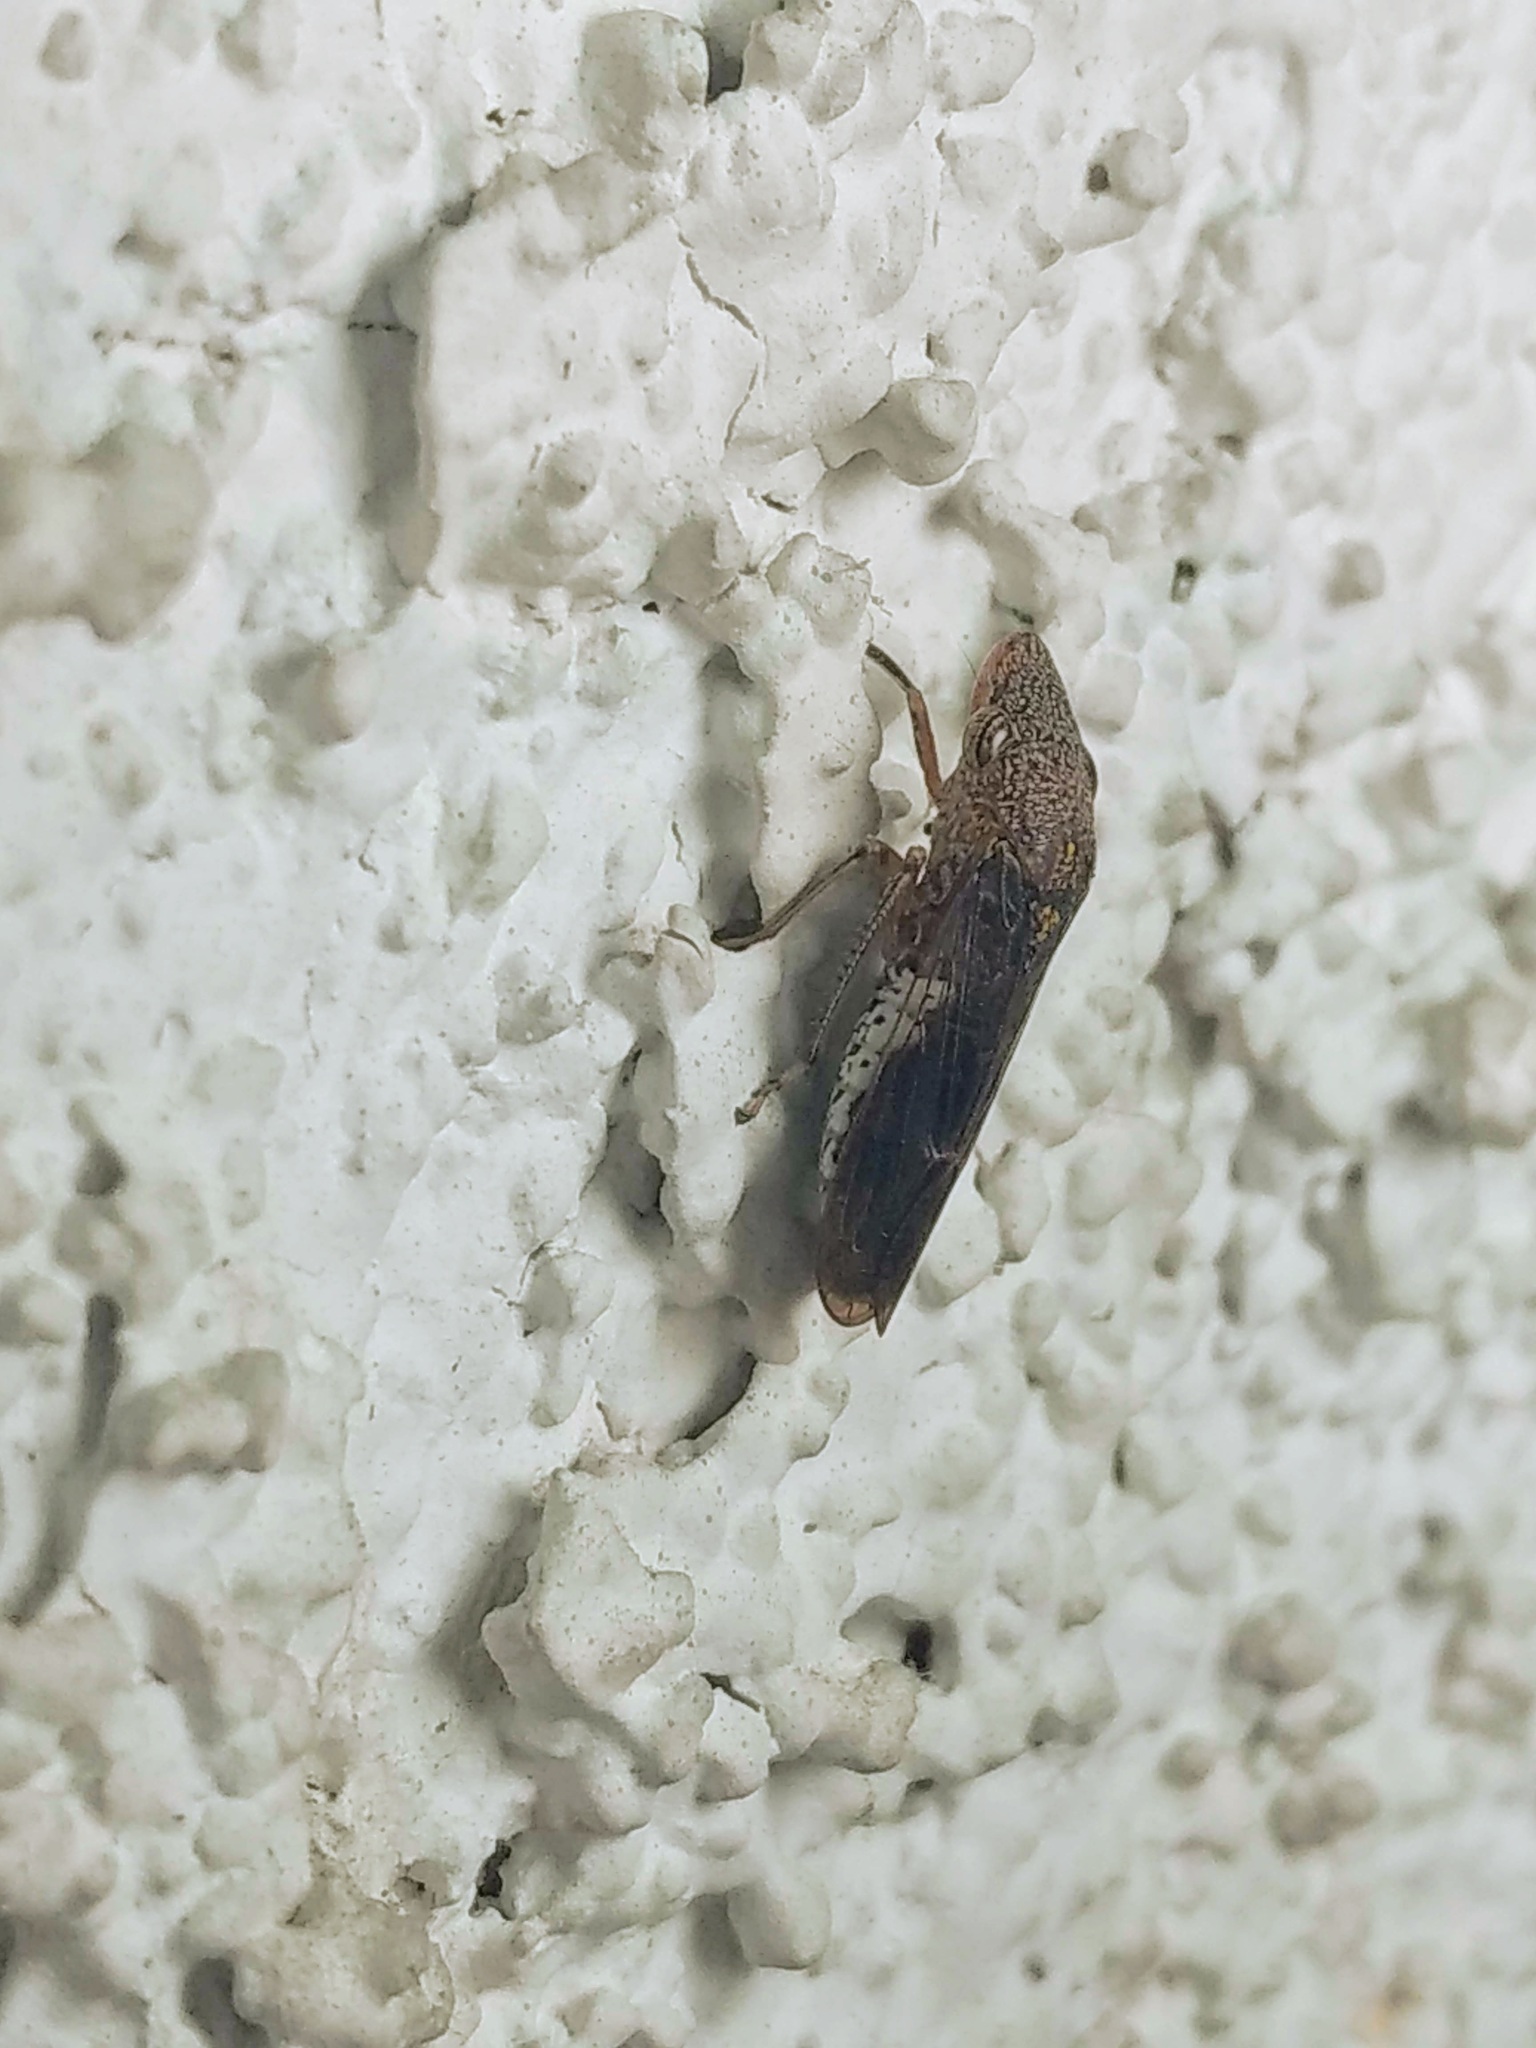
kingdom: Animalia
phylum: Arthropoda
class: Insecta
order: Hemiptera
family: Cicadellidae
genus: Homalodisca
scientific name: Homalodisca vitripennis
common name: Glassy-winged sharpshooter
